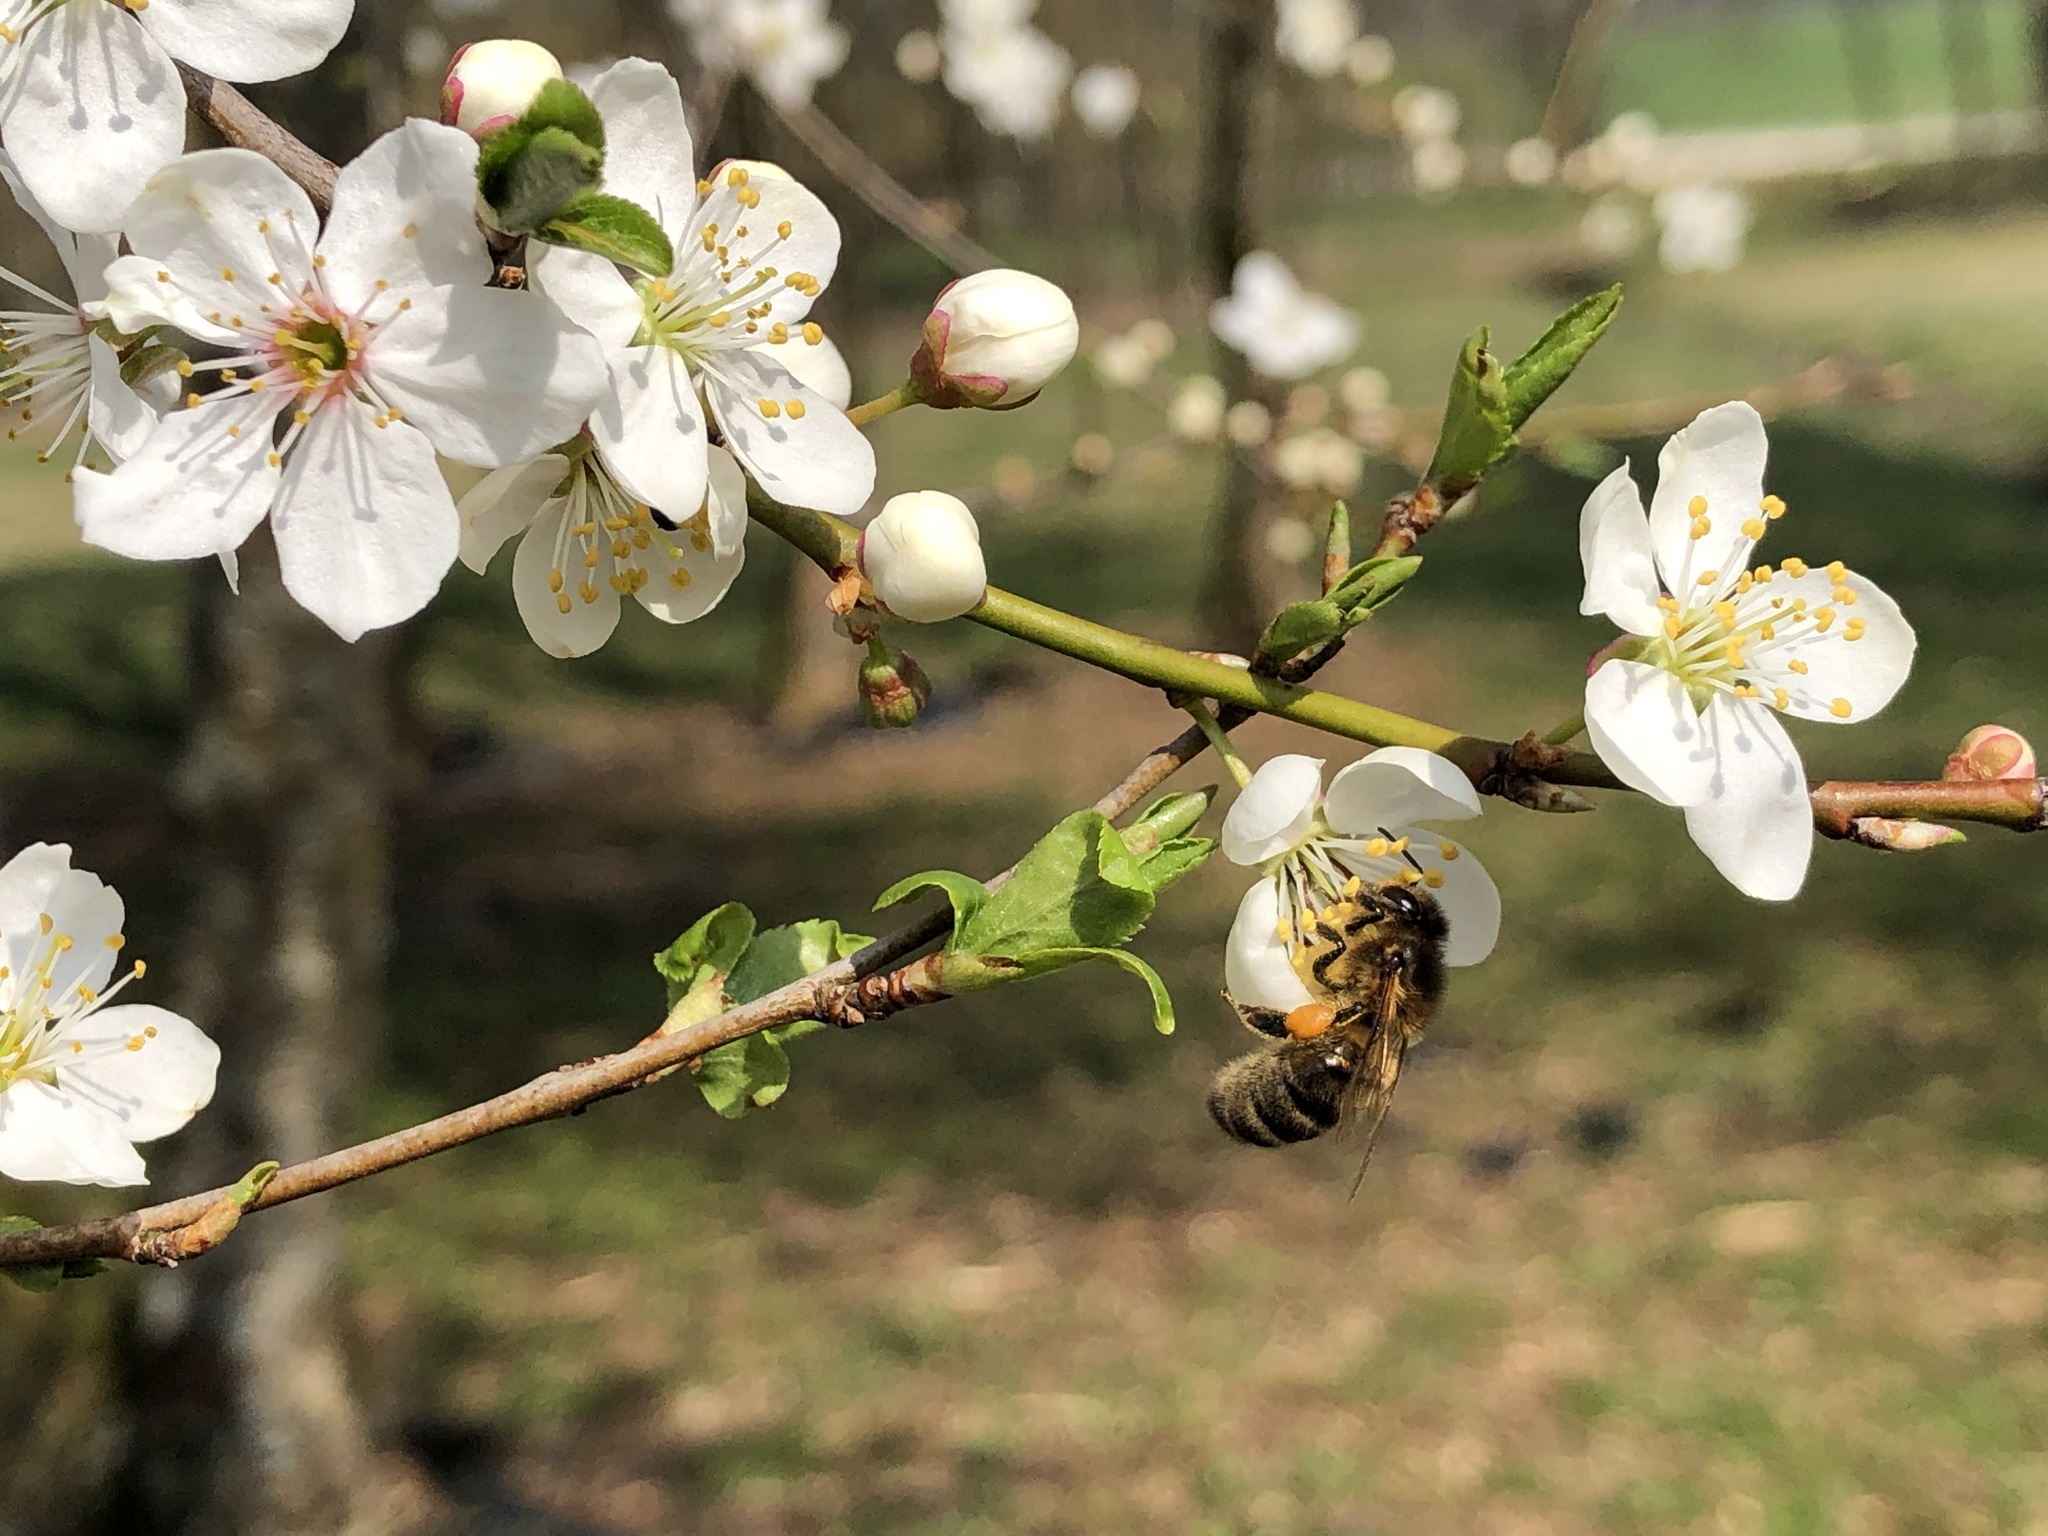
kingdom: Animalia
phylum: Arthropoda
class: Insecta
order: Hymenoptera
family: Apidae
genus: Apis
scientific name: Apis mellifera
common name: Honey bee
